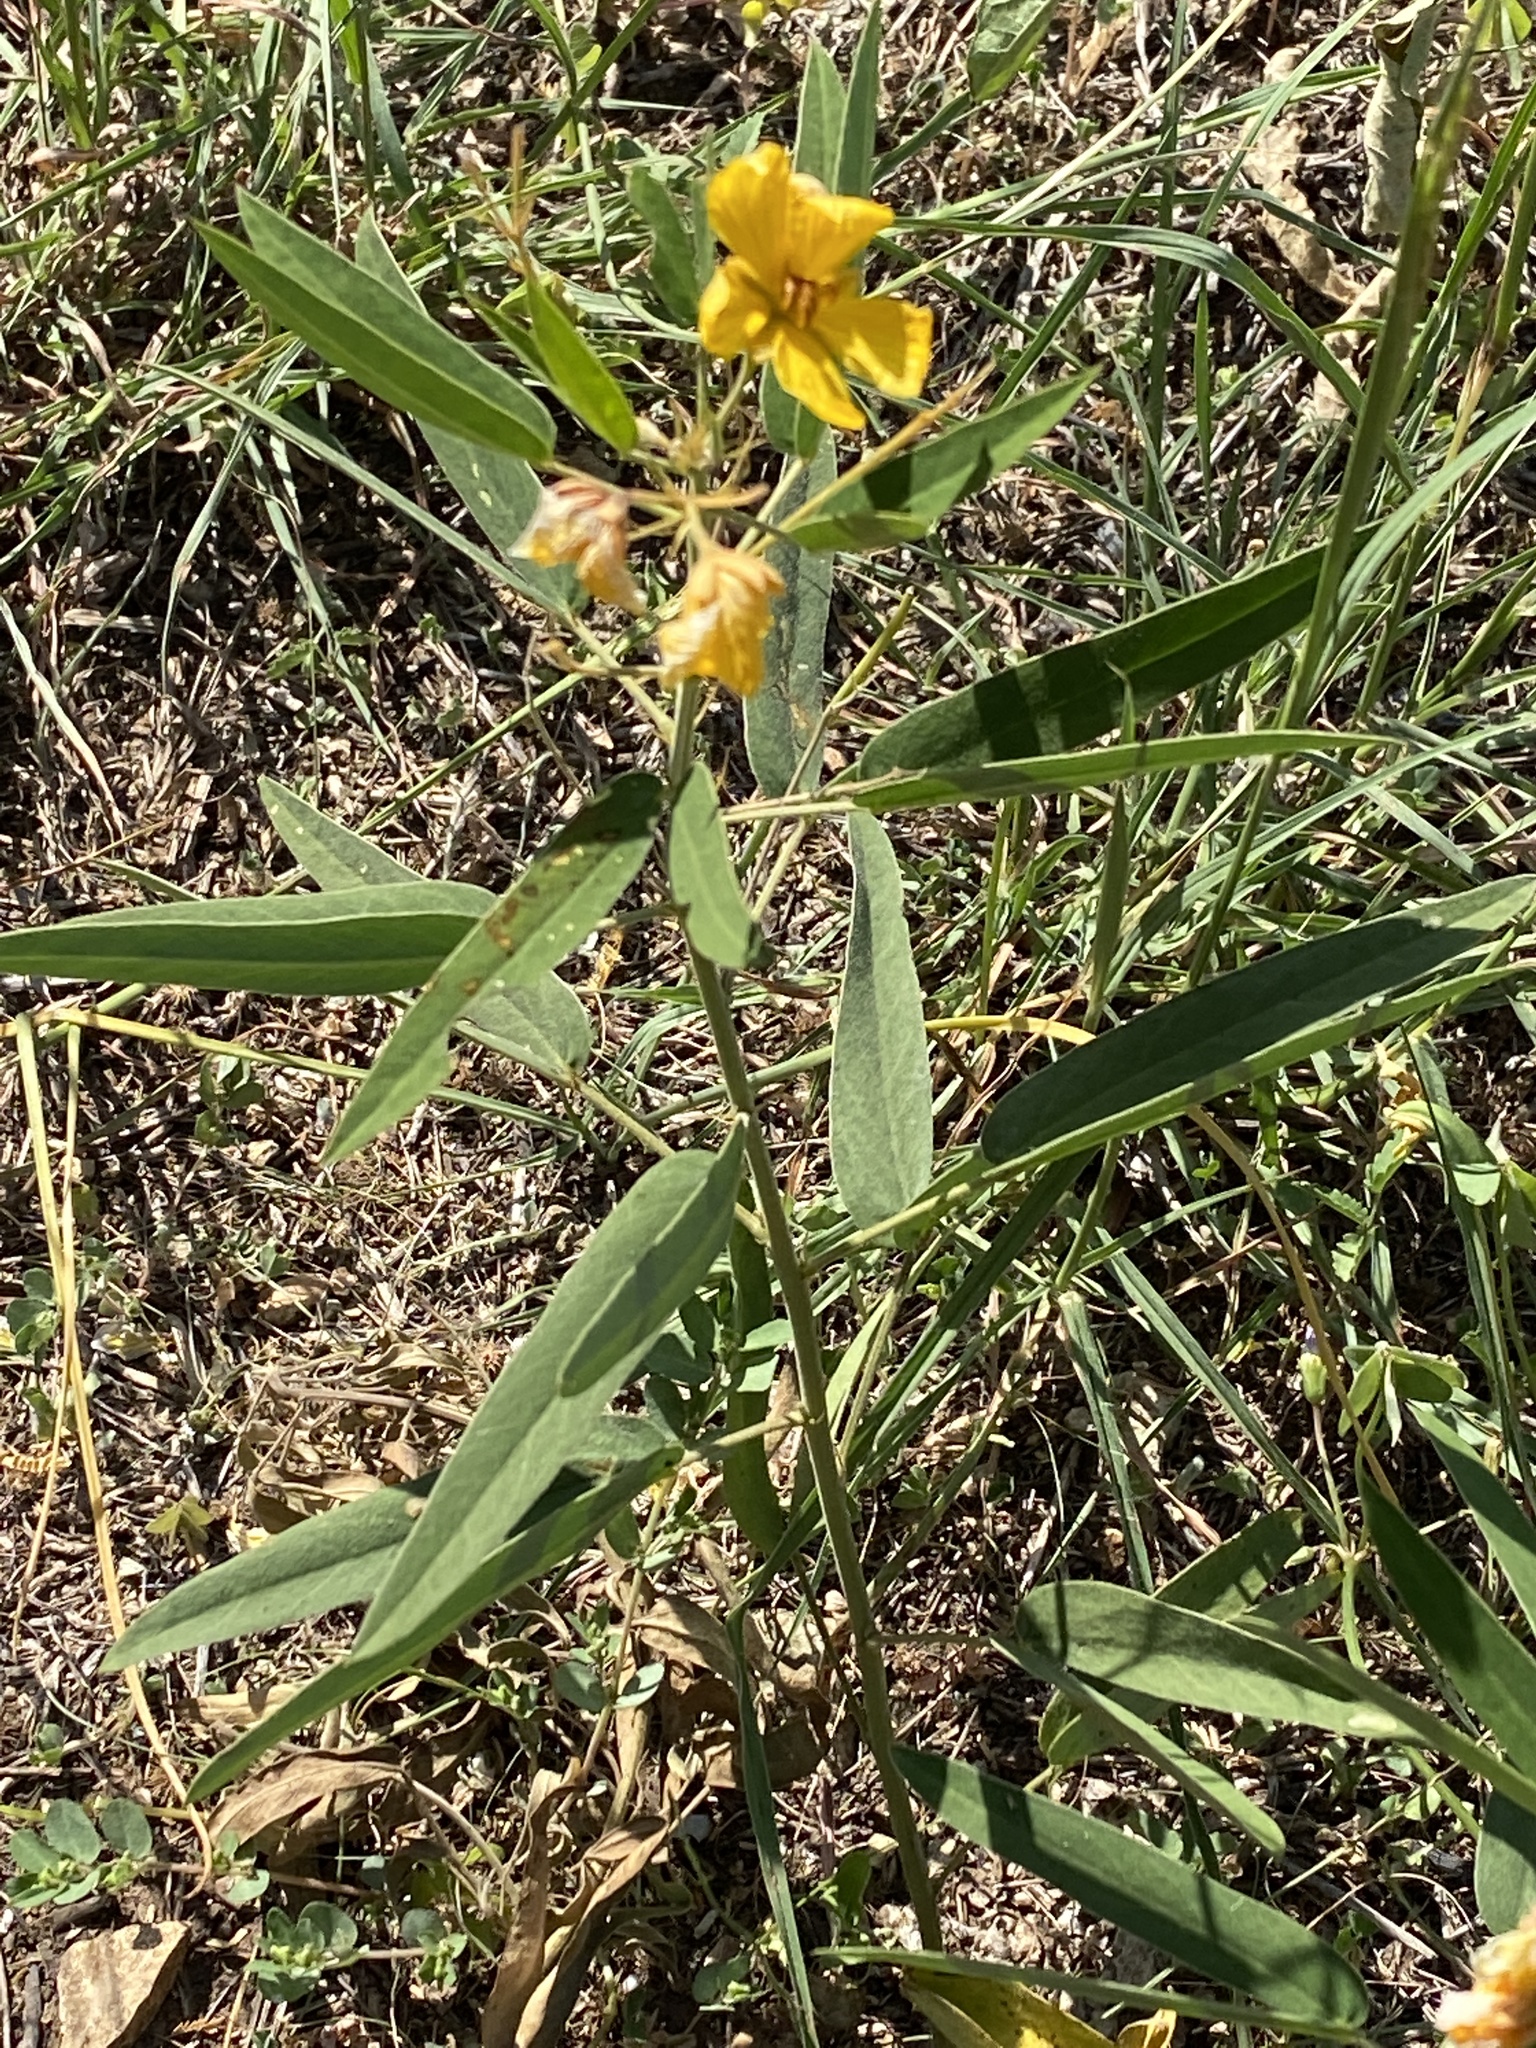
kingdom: Plantae
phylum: Tracheophyta
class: Magnoliopsida
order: Fabales
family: Fabaceae
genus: Senna
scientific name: Senna roemeriana
